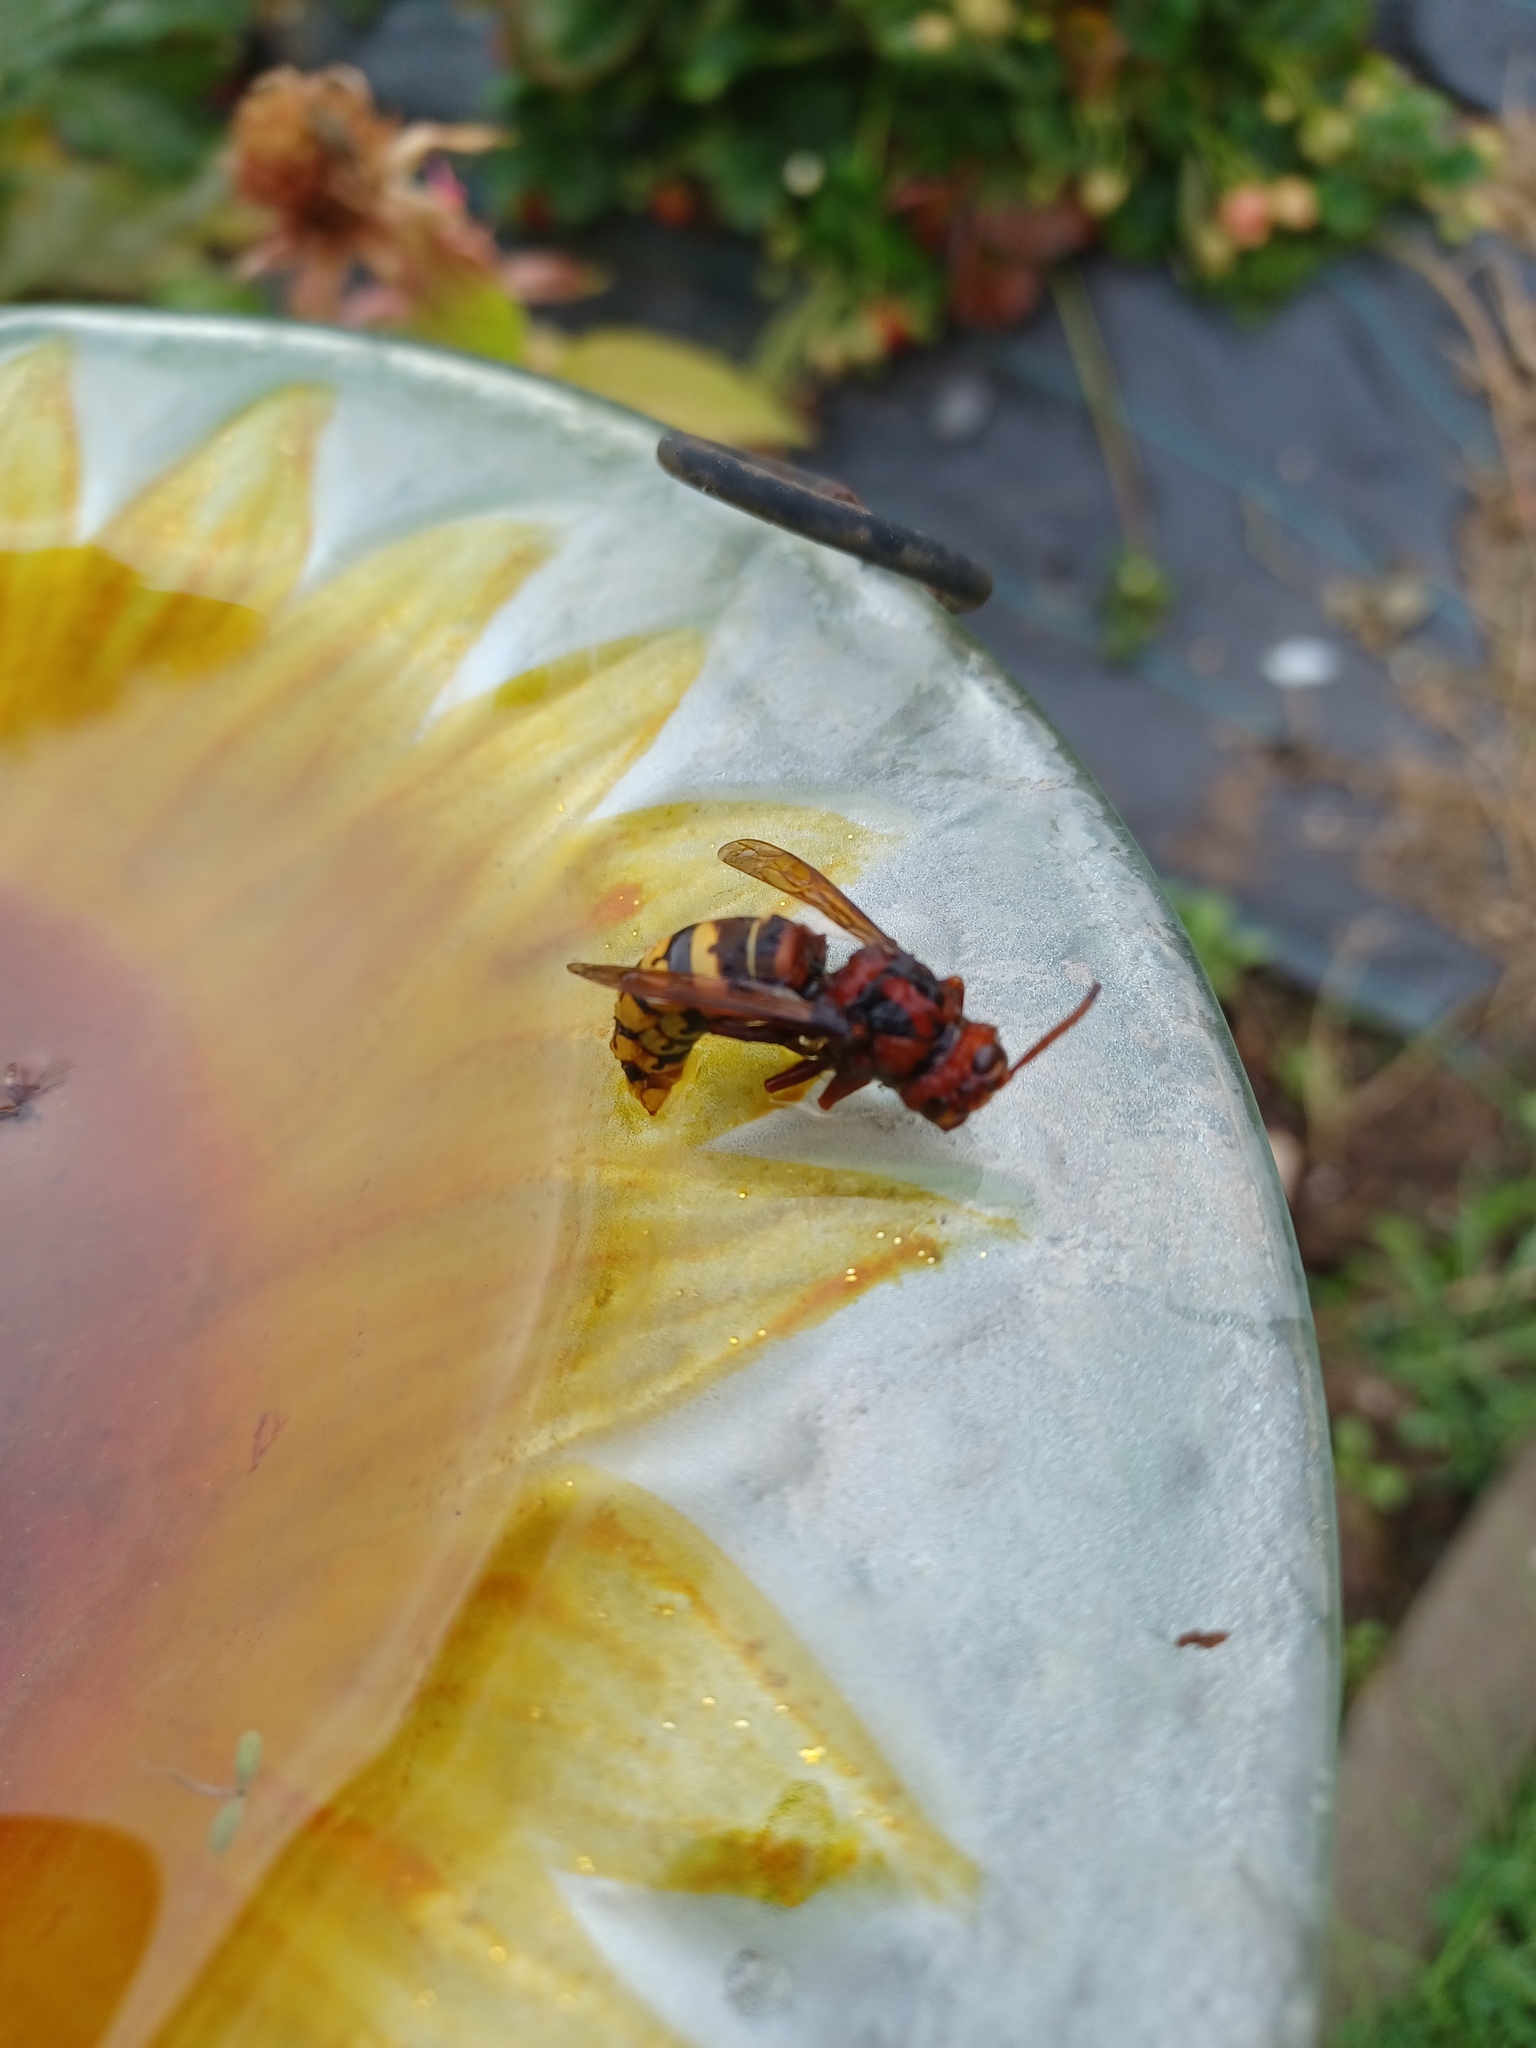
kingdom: Animalia
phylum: Arthropoda
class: Insecta
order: Hymenoptera
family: Vespidae
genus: Vespa
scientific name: Vespa crabro
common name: Hornet
